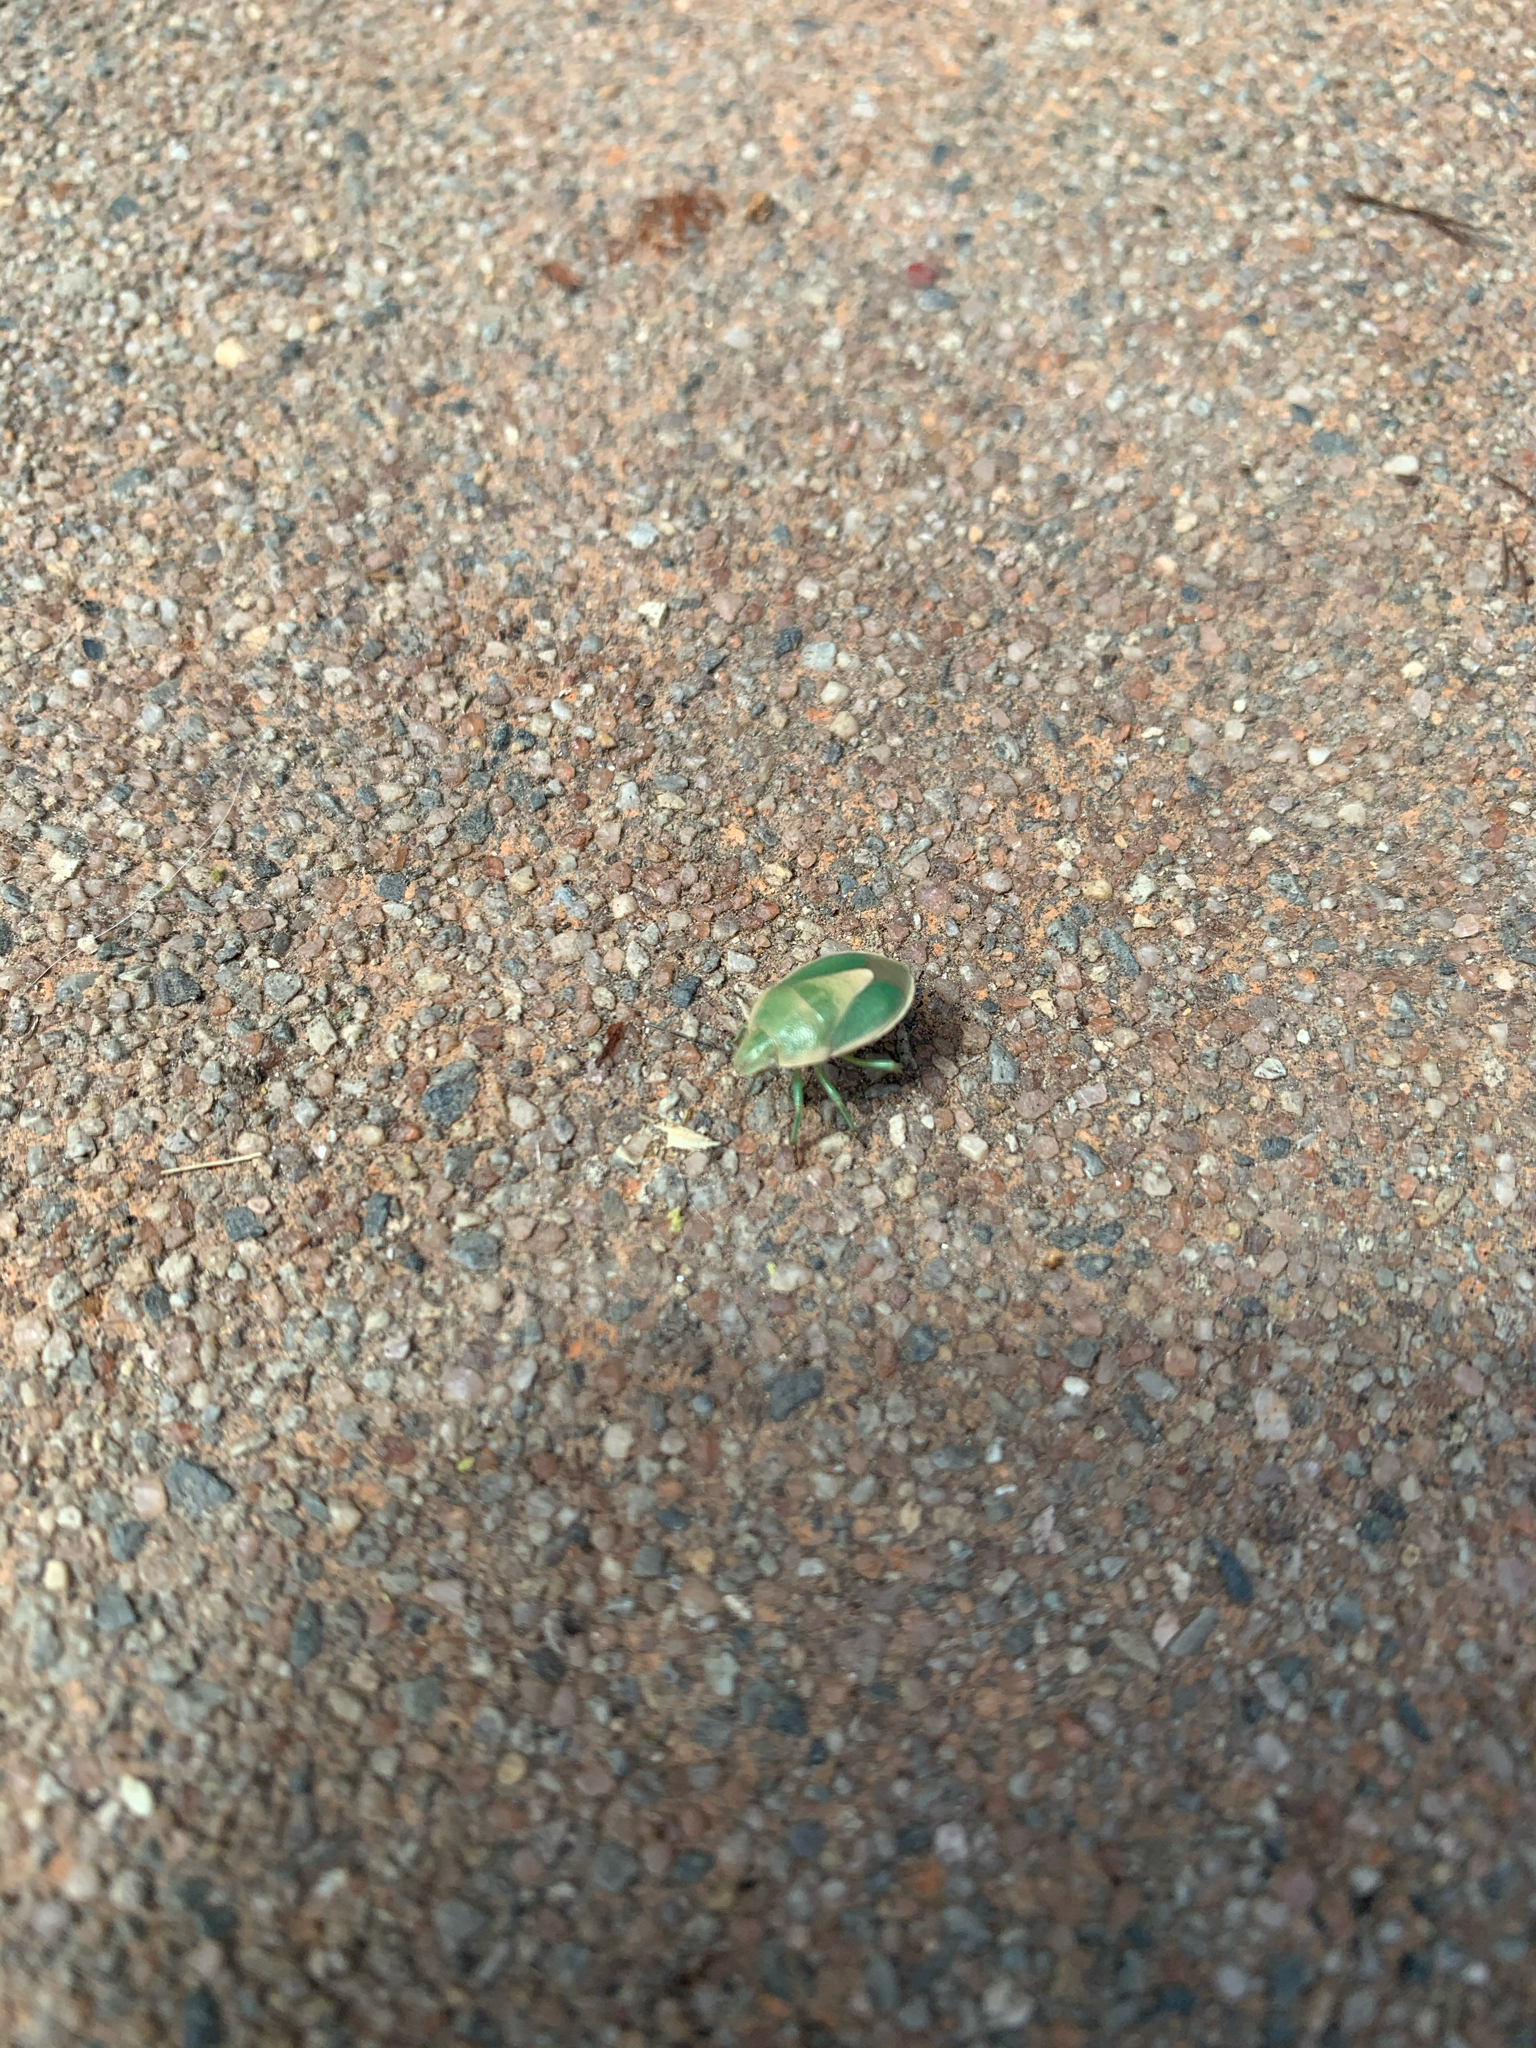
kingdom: Animalia
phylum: Arthropoda
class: Insecta
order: Hemiptera
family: Pentatomidae
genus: Chlorochroa
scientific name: Chlorochroa viridicata
